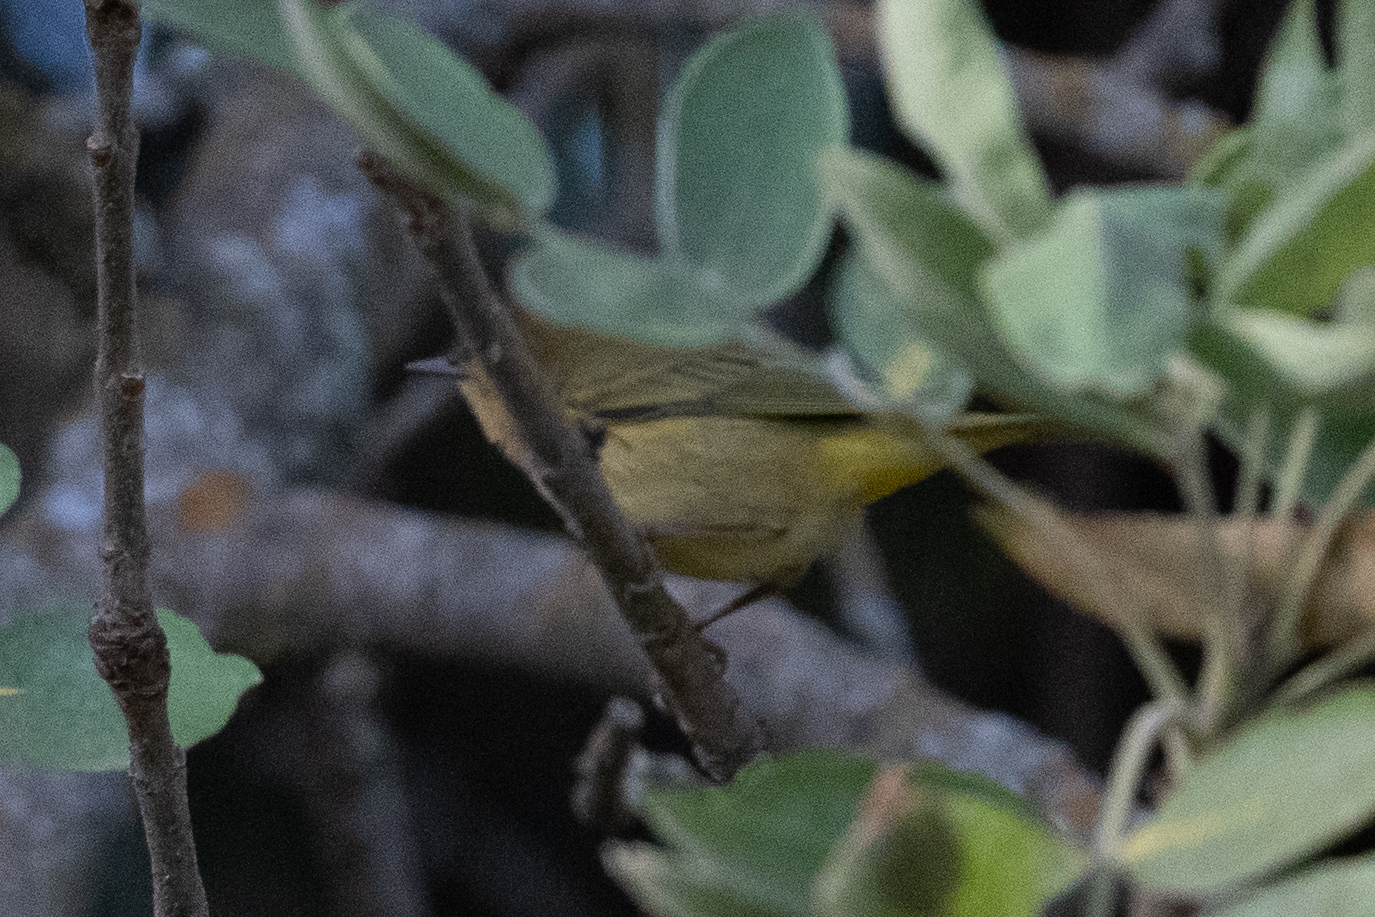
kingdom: Animalia
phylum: Chordata
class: Aves
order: Passeriformes
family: Parulidae
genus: Setophaga
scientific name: Setophaga petechia
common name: Yellow warbler
